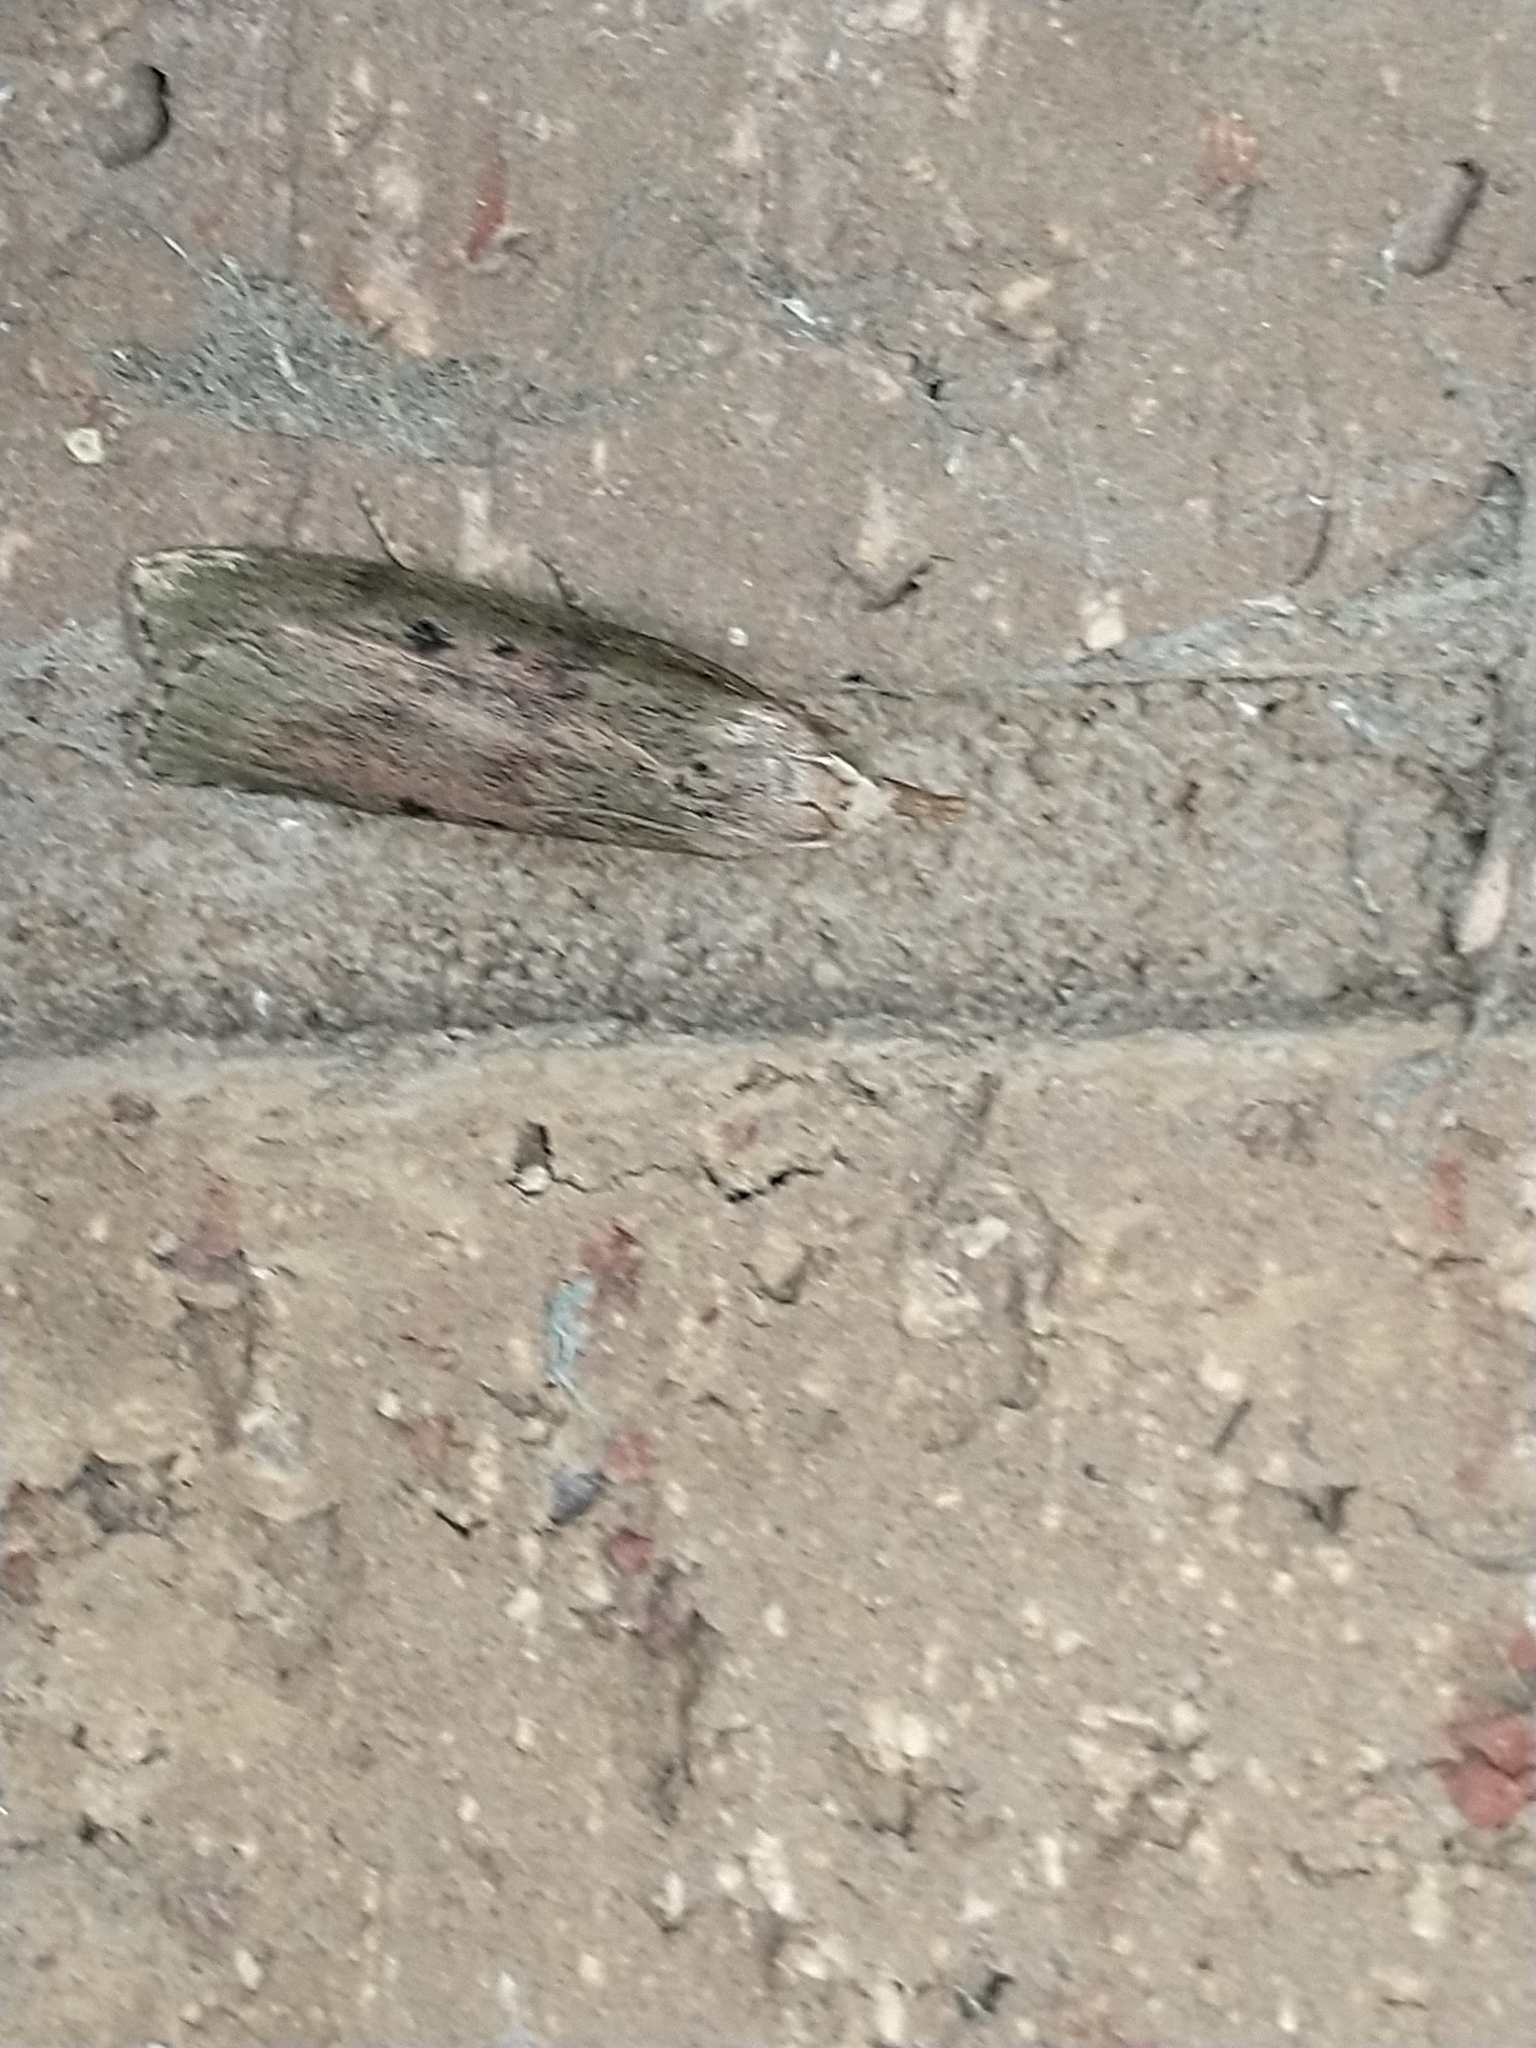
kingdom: Animalia
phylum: Arthropoda
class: Insecta
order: Lepidoptera
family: Pyralidae
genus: Aphomia
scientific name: Aphomia sociella
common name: Bee moth
